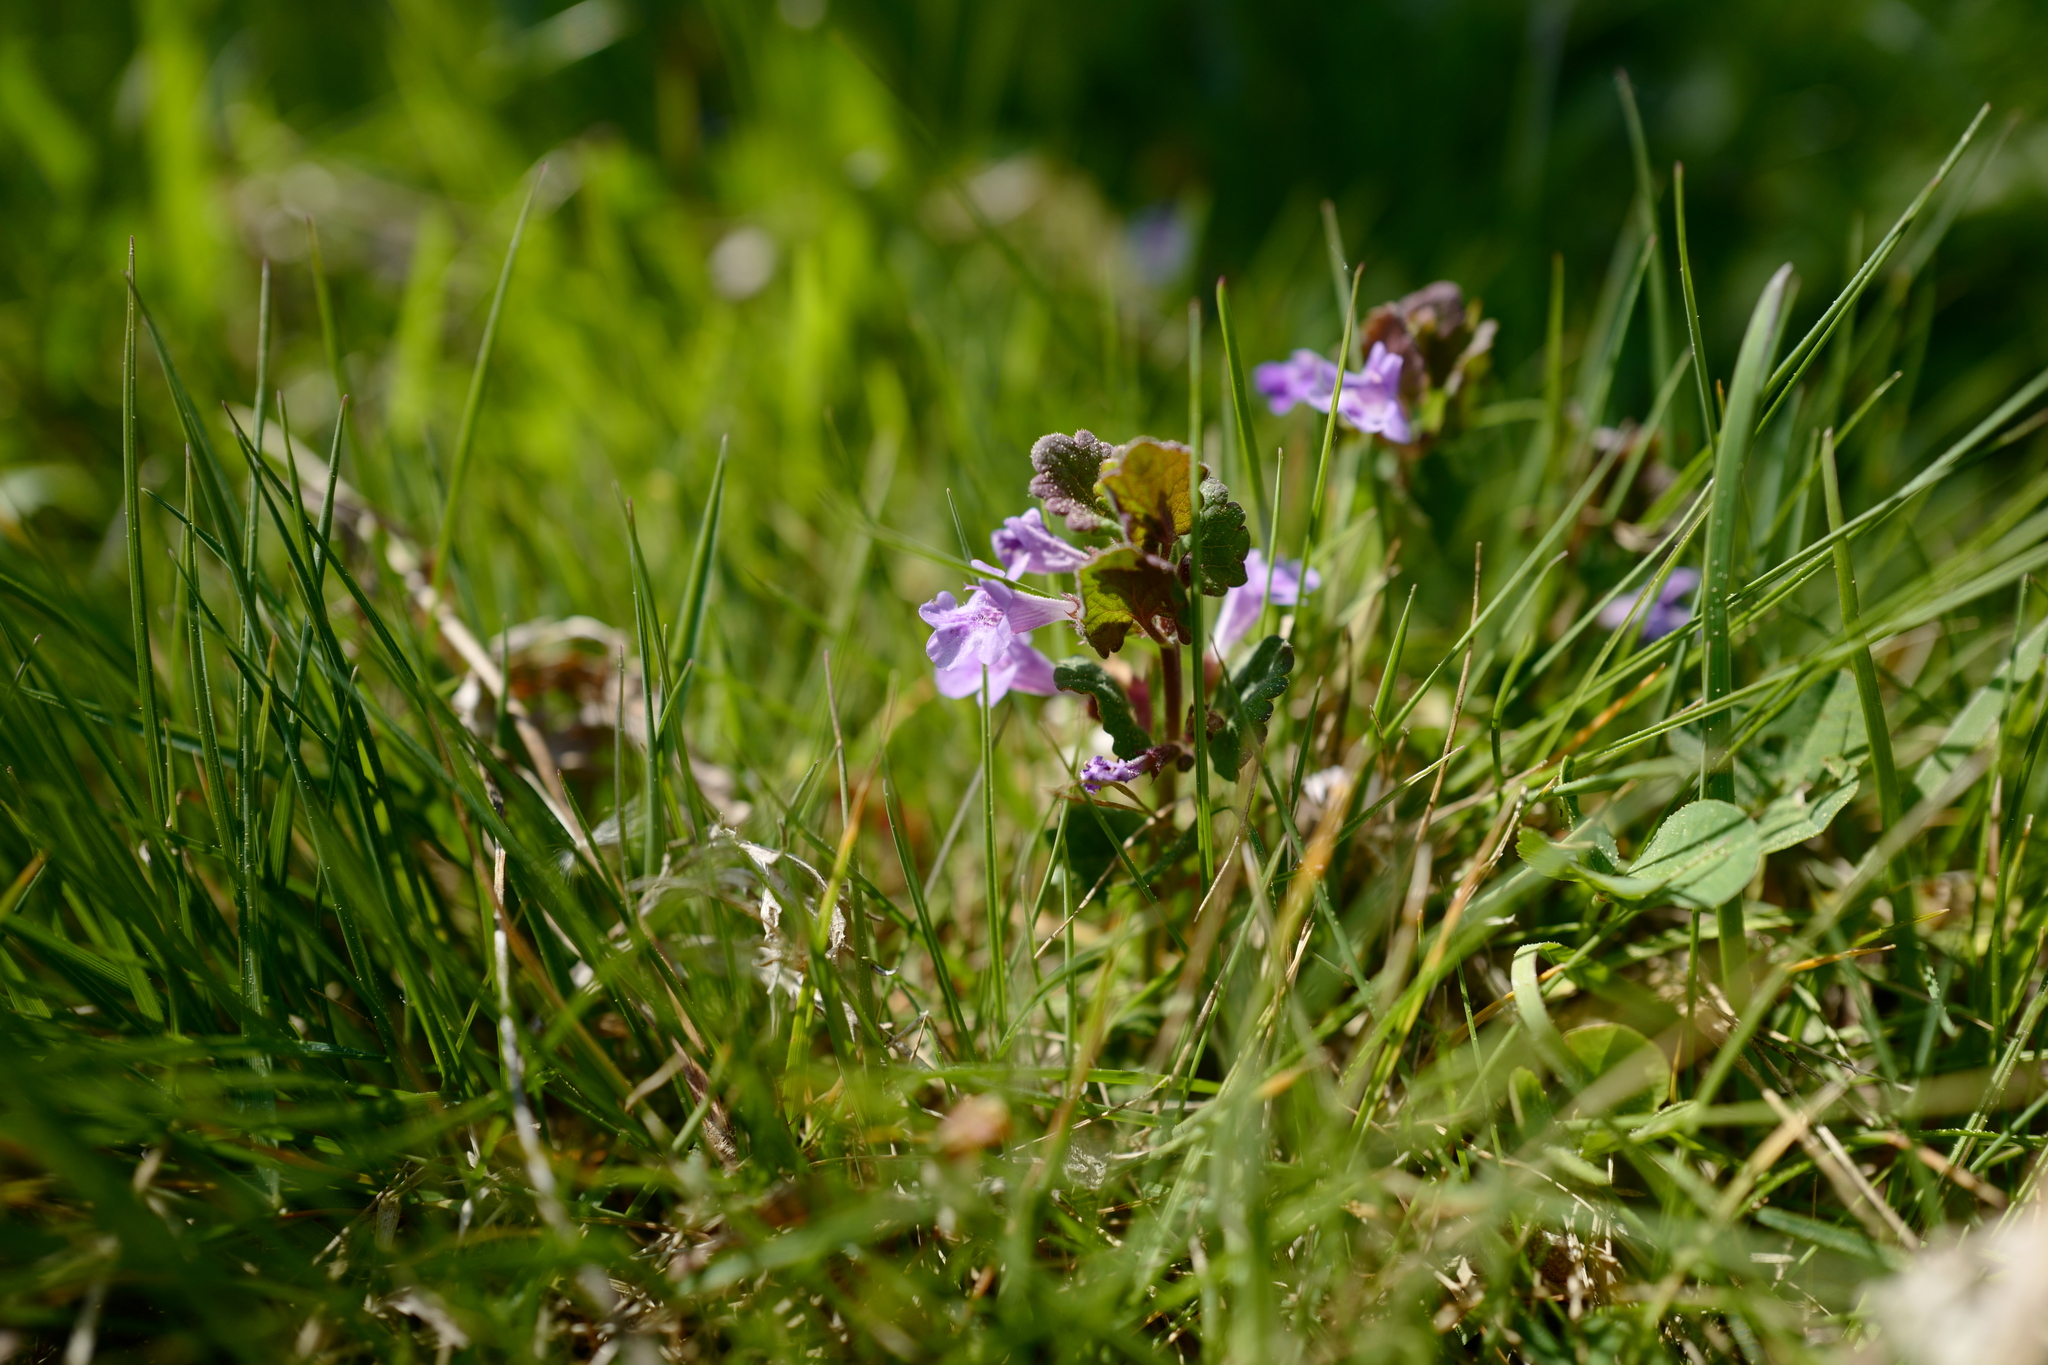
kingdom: Plantae
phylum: Tracheophyta
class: Magnoliopsida
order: Lamiales
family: Lamiaceae
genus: Glechoma
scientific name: Glechoma hederacea
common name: Ground ivy
